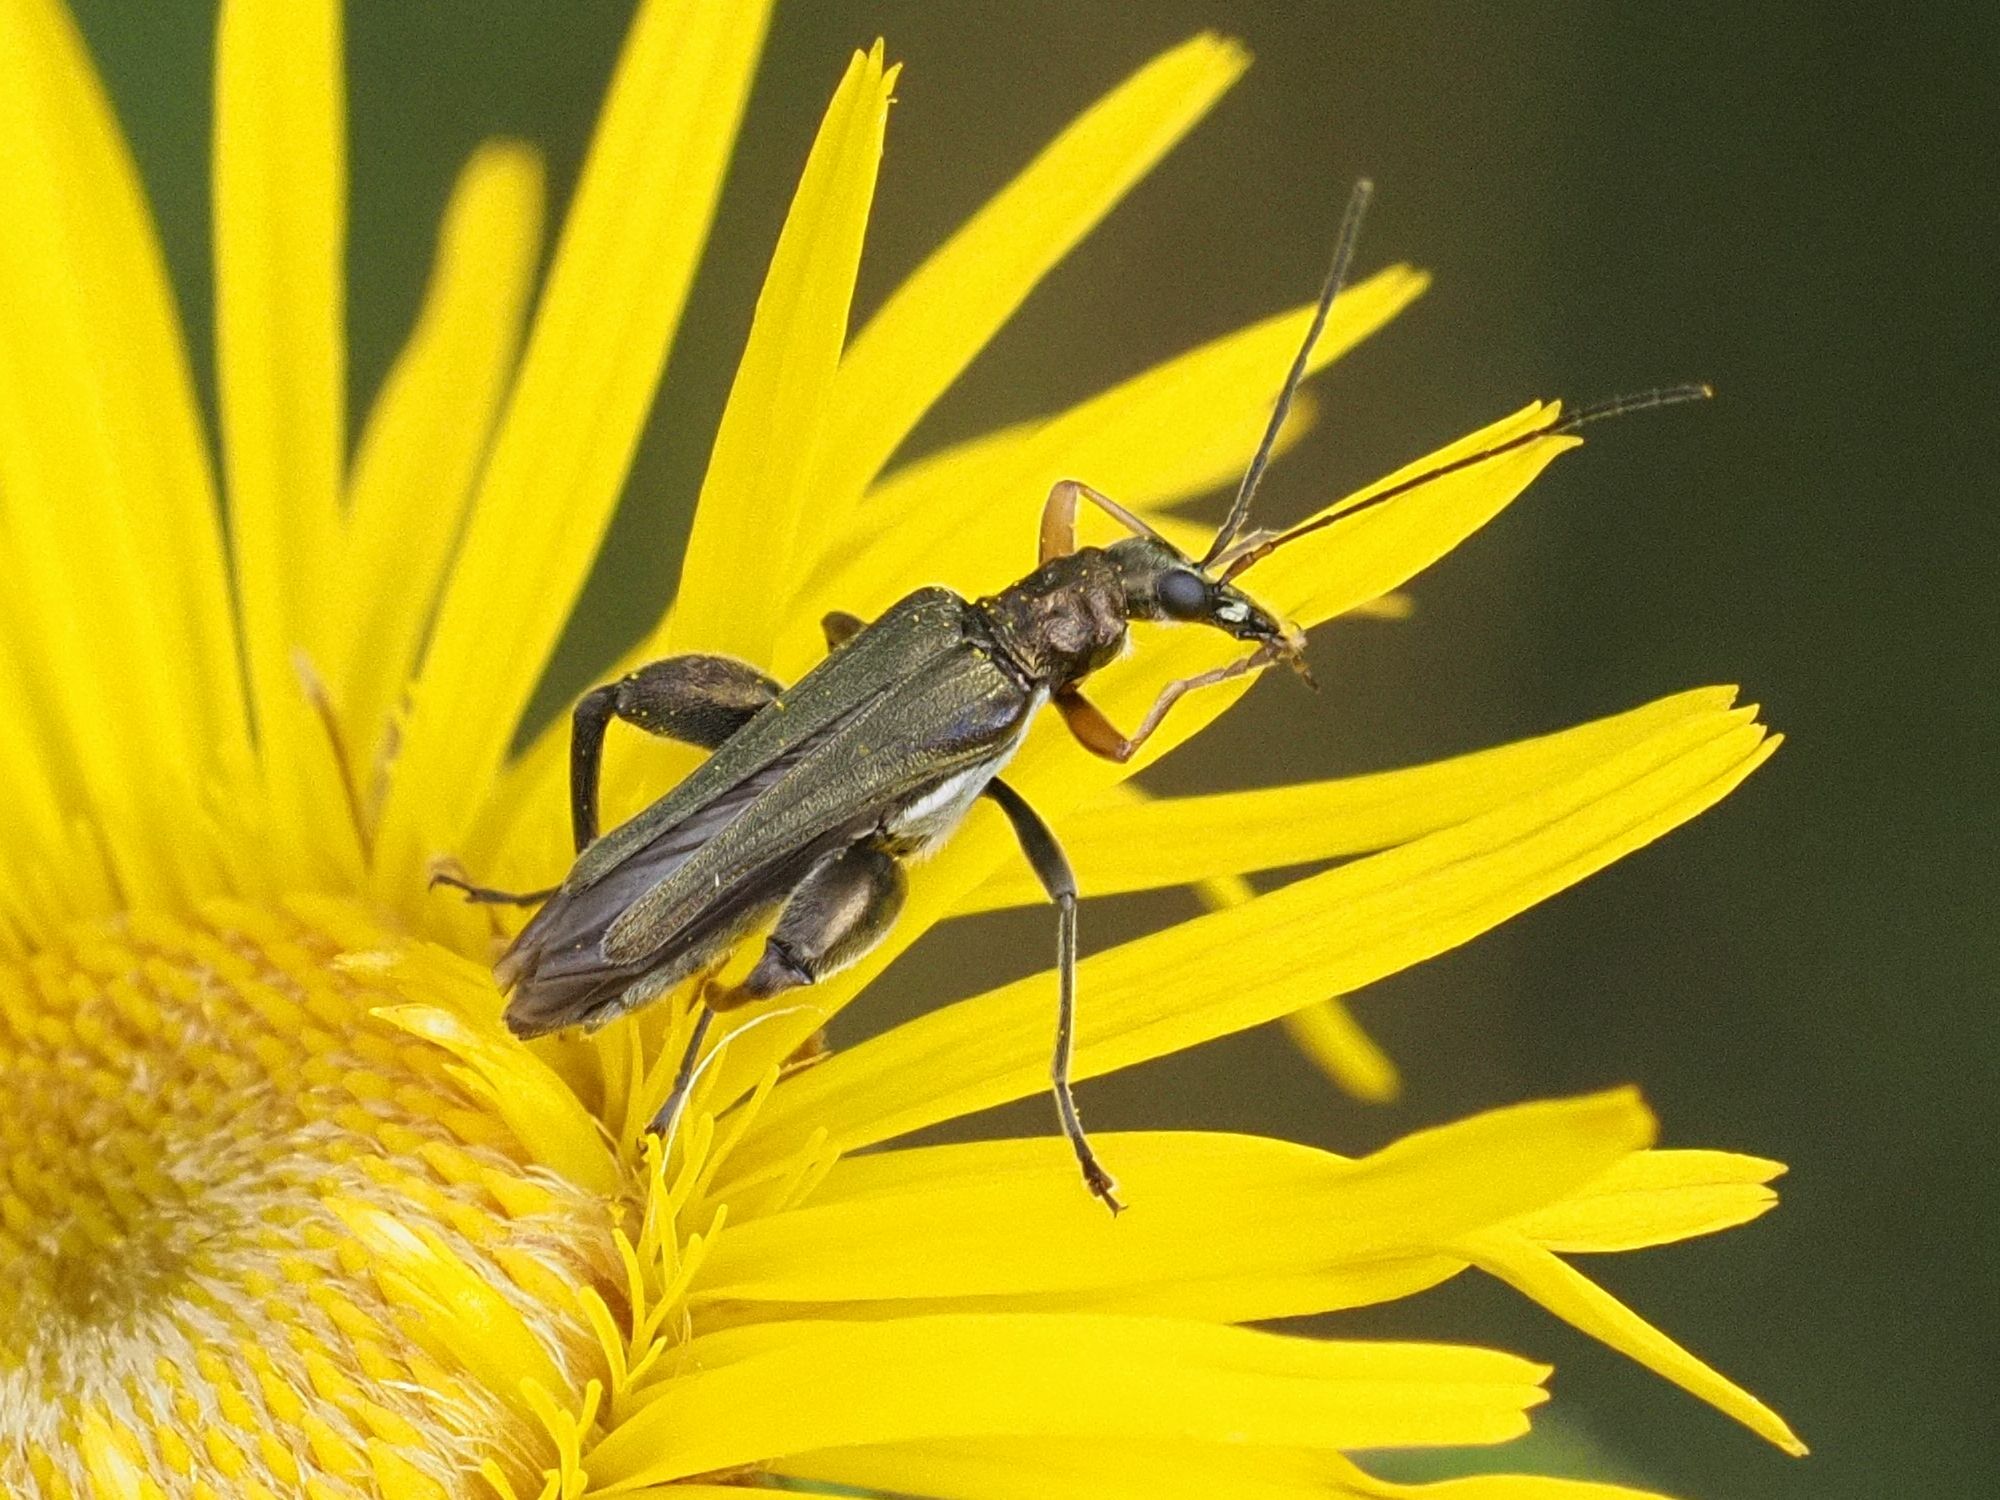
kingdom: Animalia
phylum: Arthropoda
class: Insecta
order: Coleoptera
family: Oedemeridae
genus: Oedemera
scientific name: Oedemera flavipes
